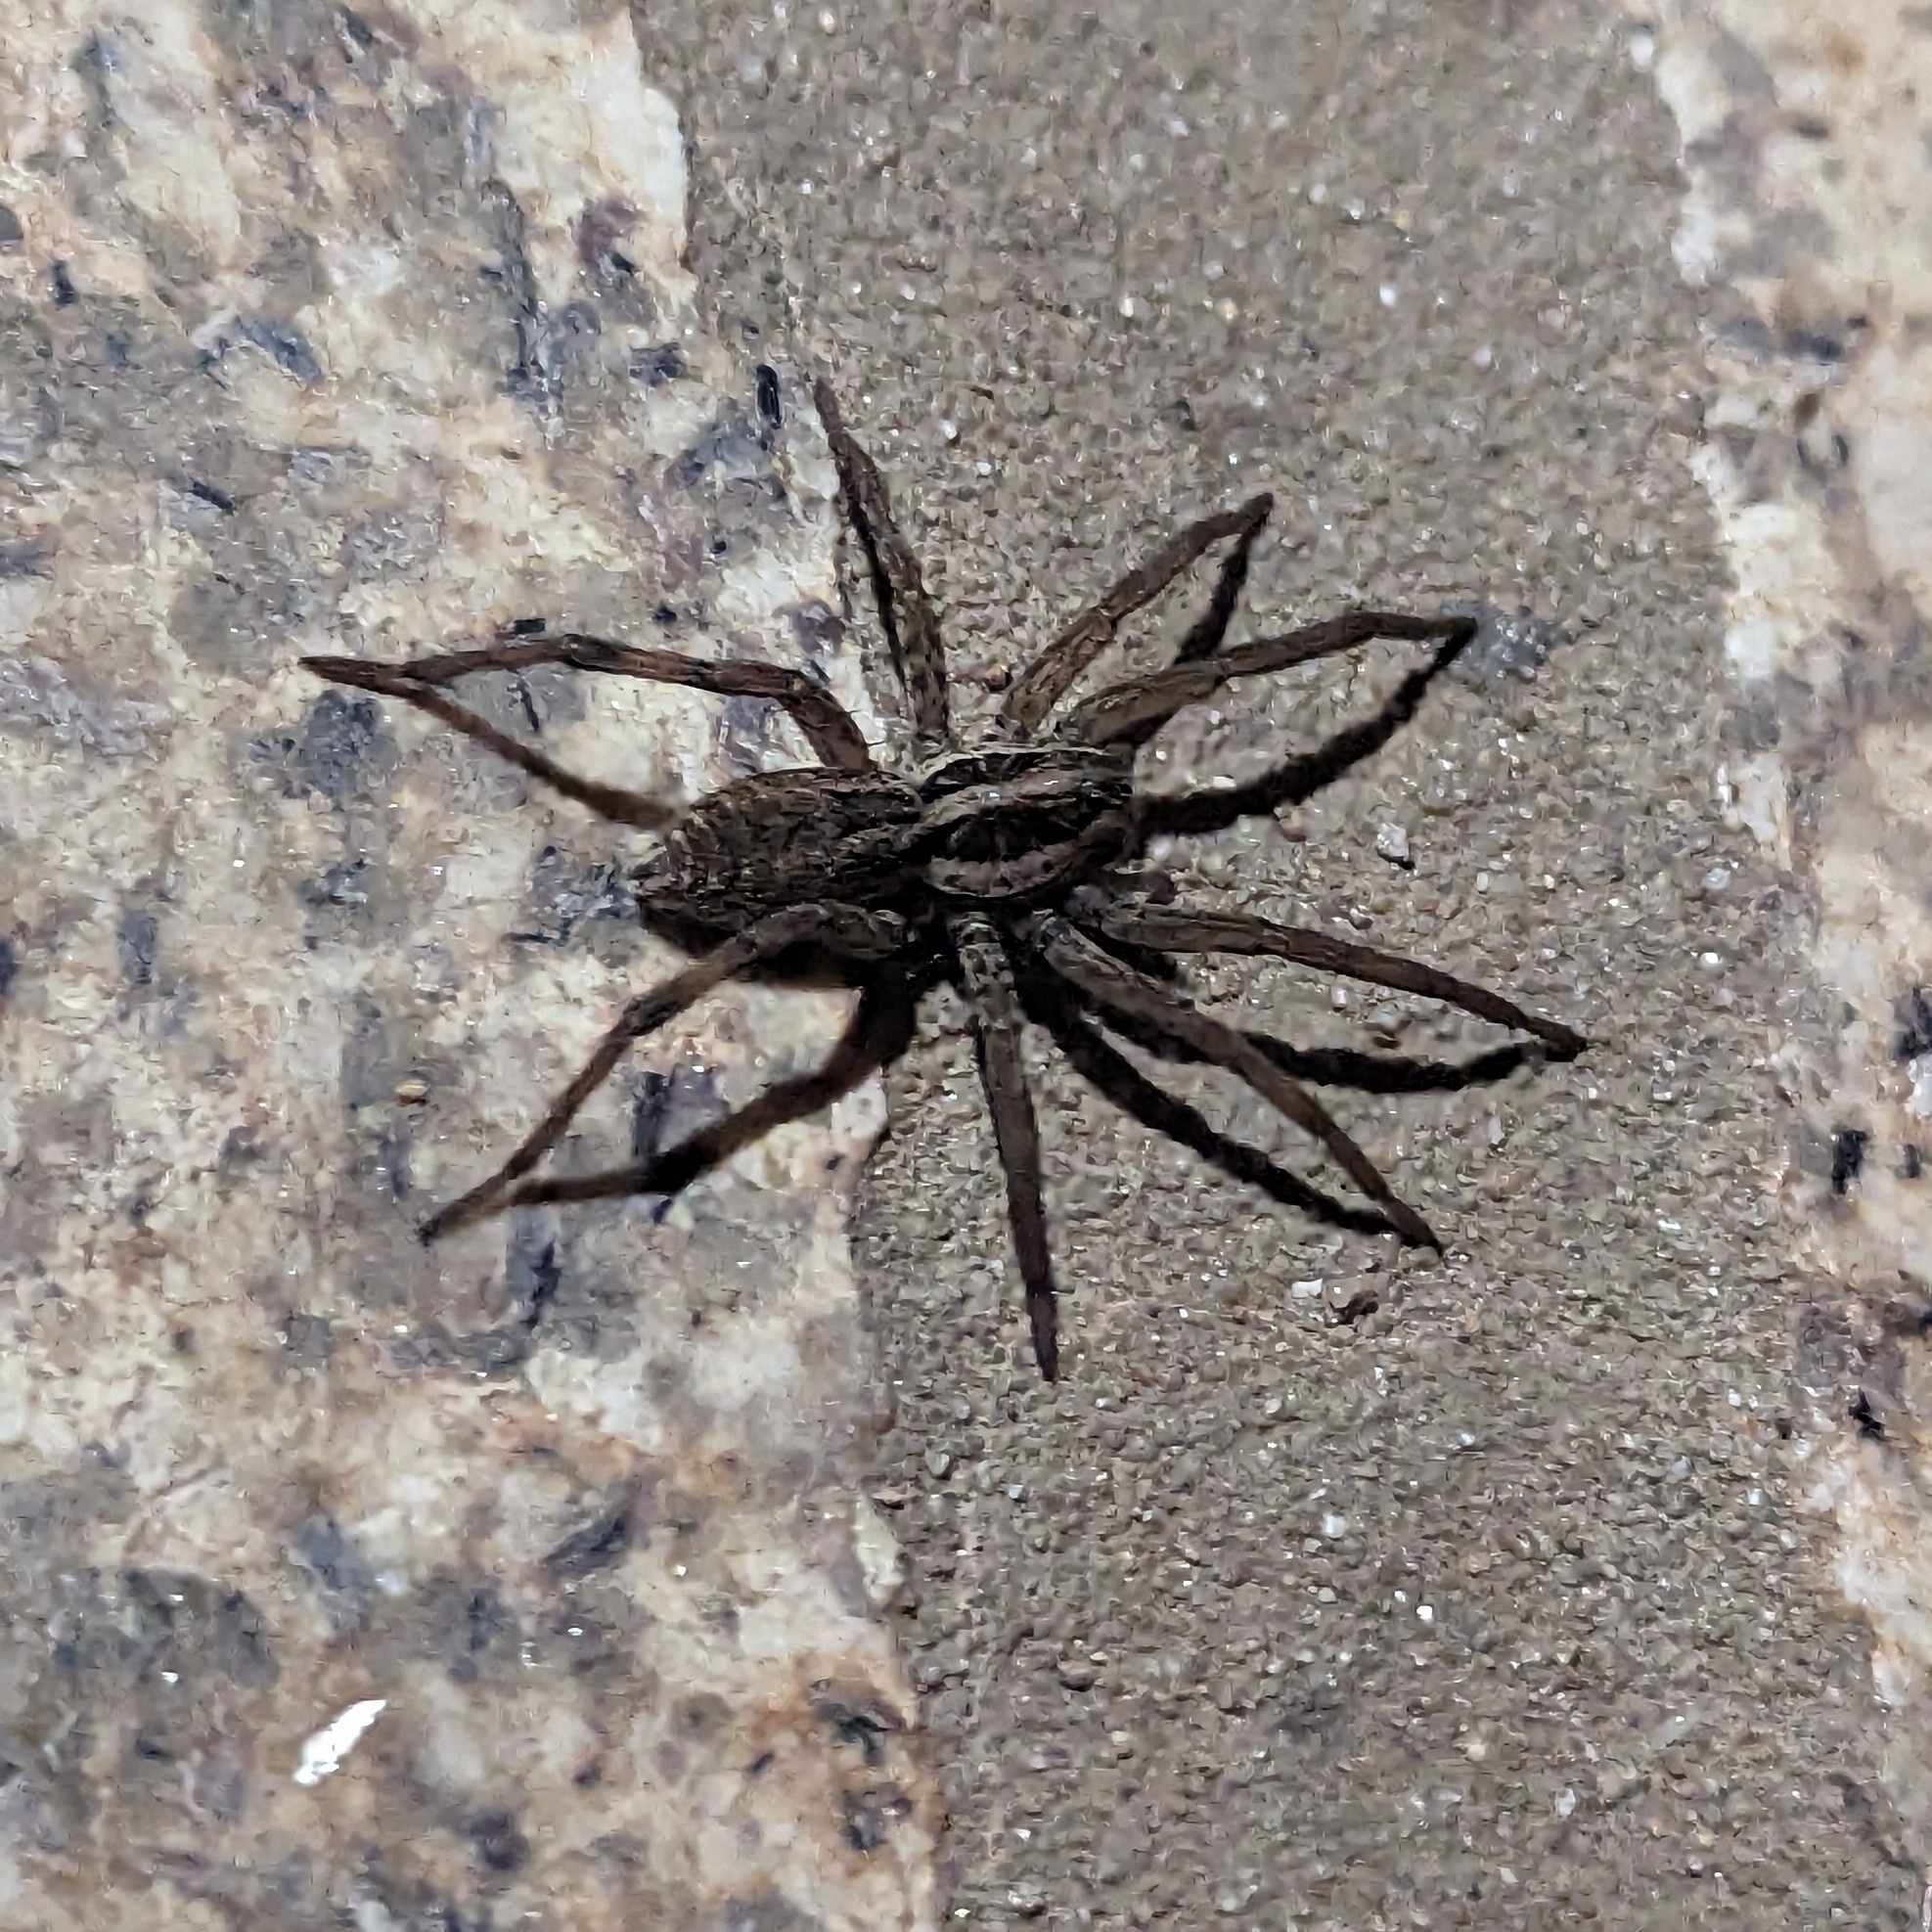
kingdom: Animalia
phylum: Arthropoda
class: Arachnida
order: Araneae
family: Lycosidae
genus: Hogna
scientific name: Hogna radiata
